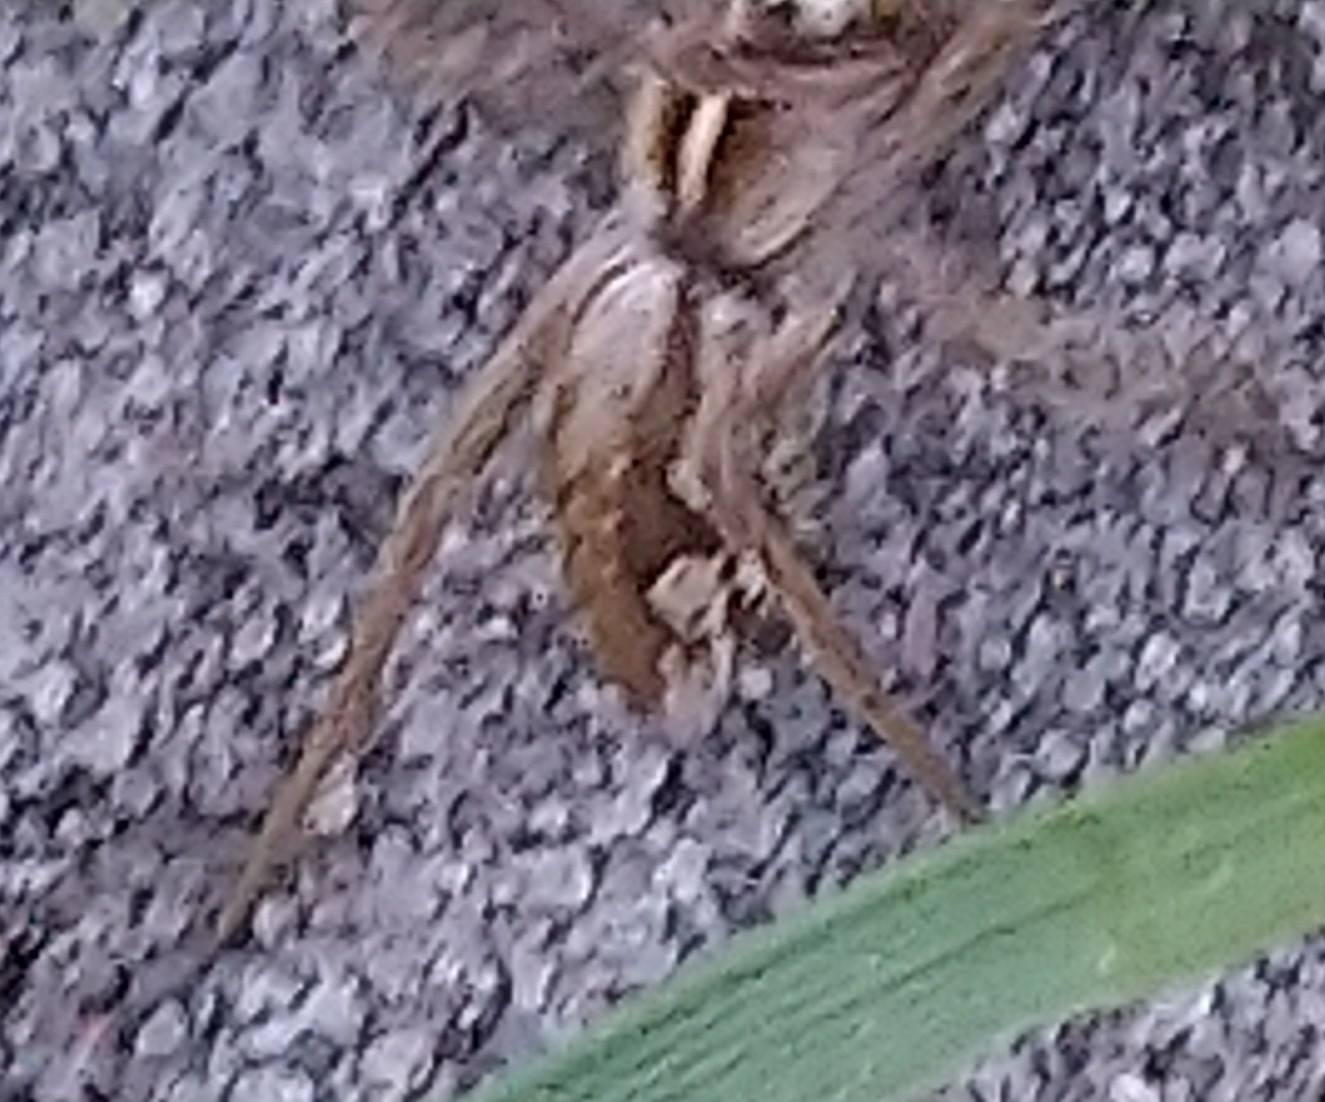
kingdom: Animalia
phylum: Arthropoda
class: Arachnida
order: Araneae
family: Pisauridae
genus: Pisaura
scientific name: Pisaura mirabilis
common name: Tent spider
